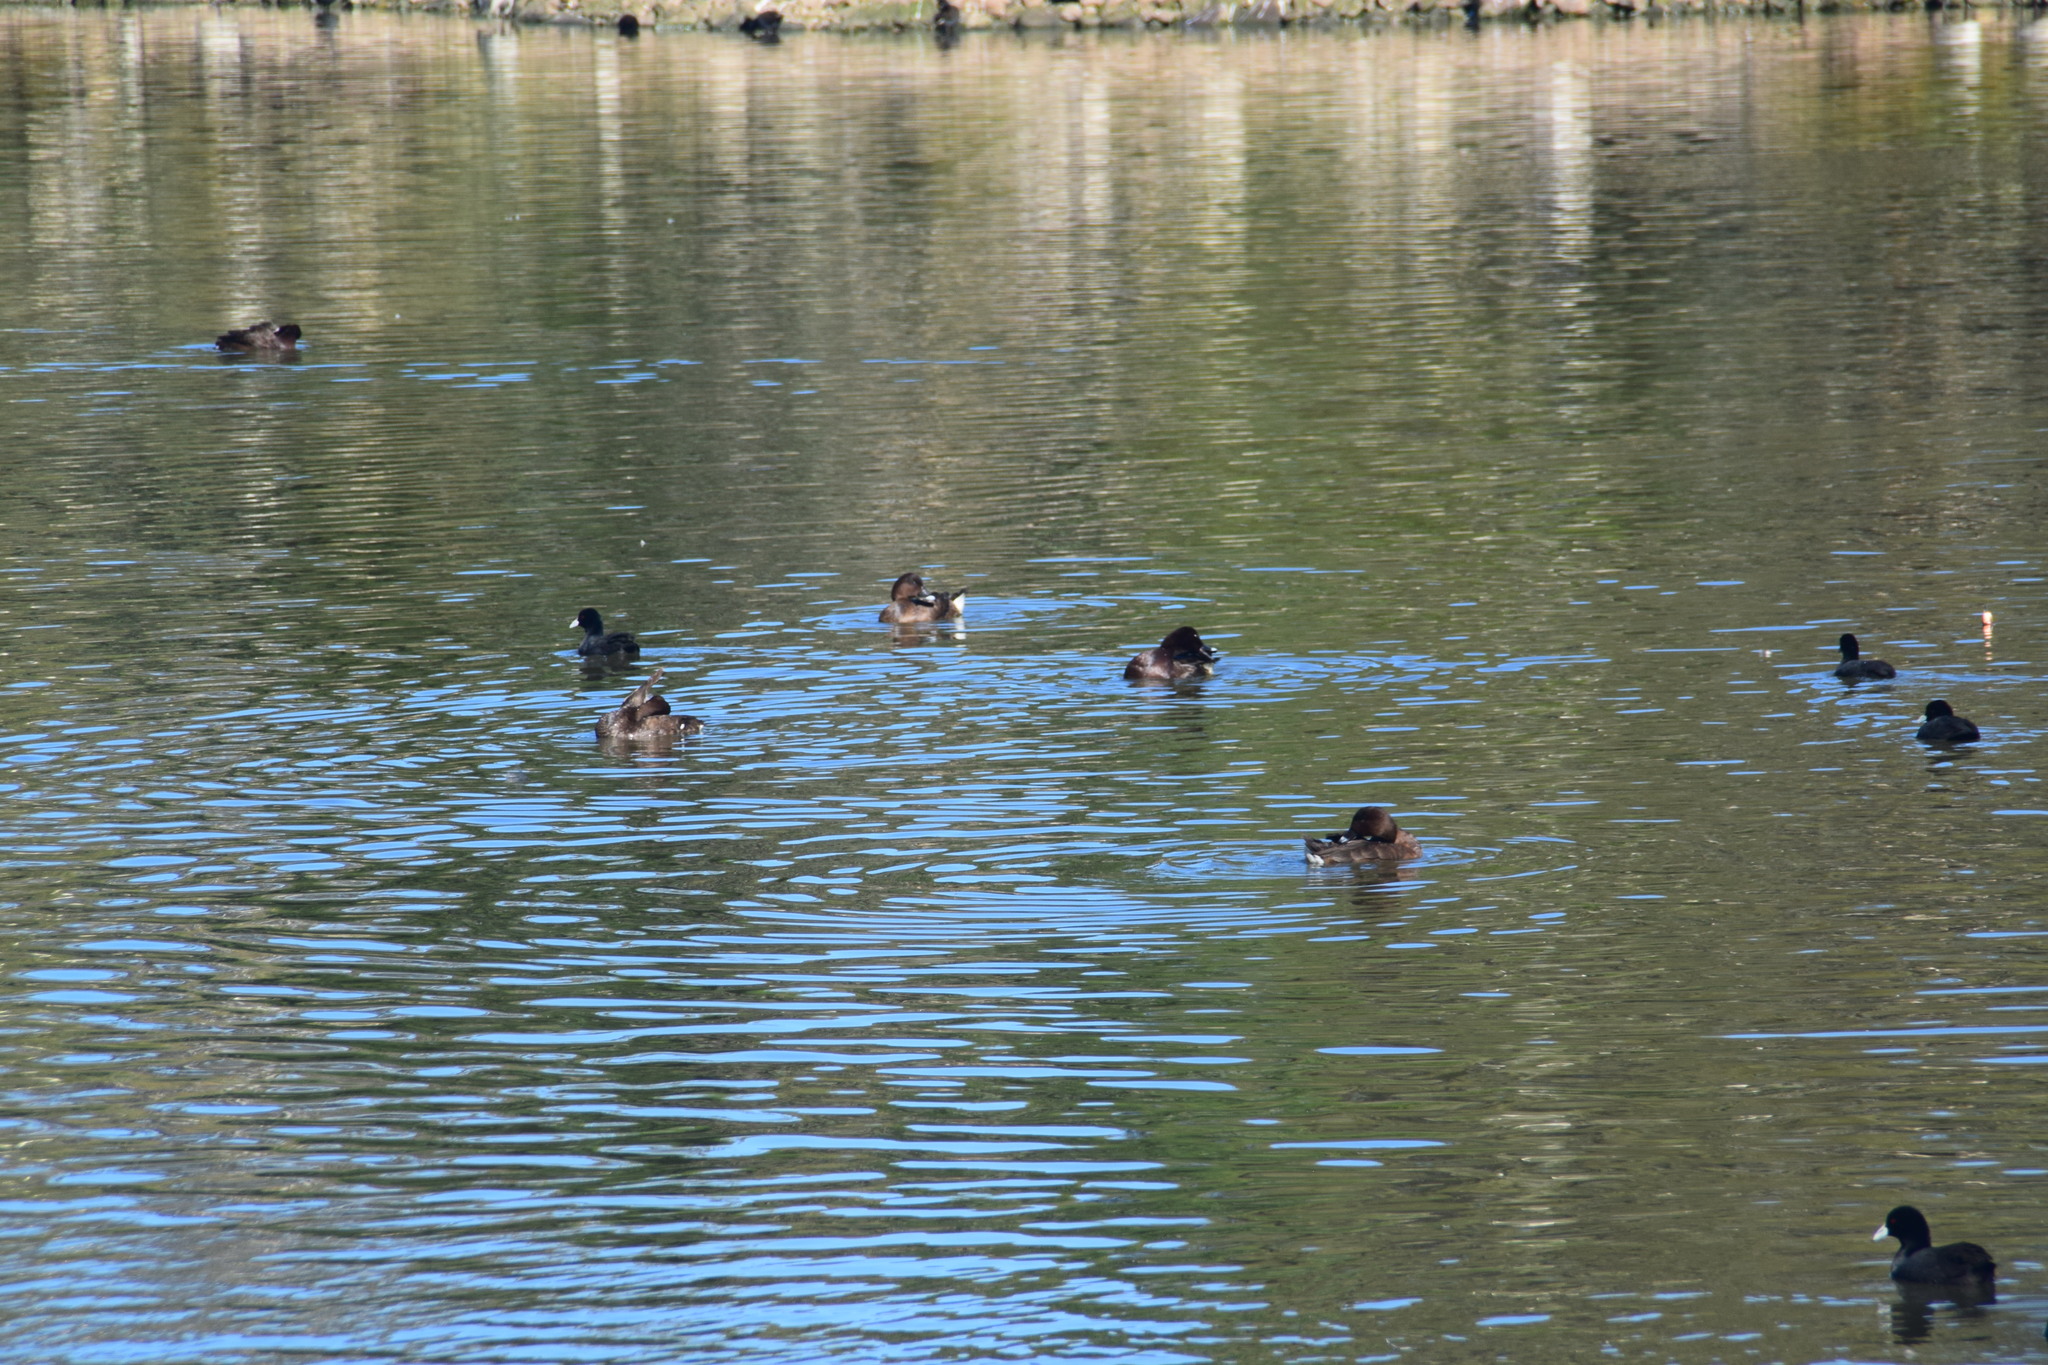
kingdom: Animalia
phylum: Chordata
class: Aves
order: Anseriformes
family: Anatidae
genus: Aythya
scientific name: Aythya australis
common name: Hardhead
